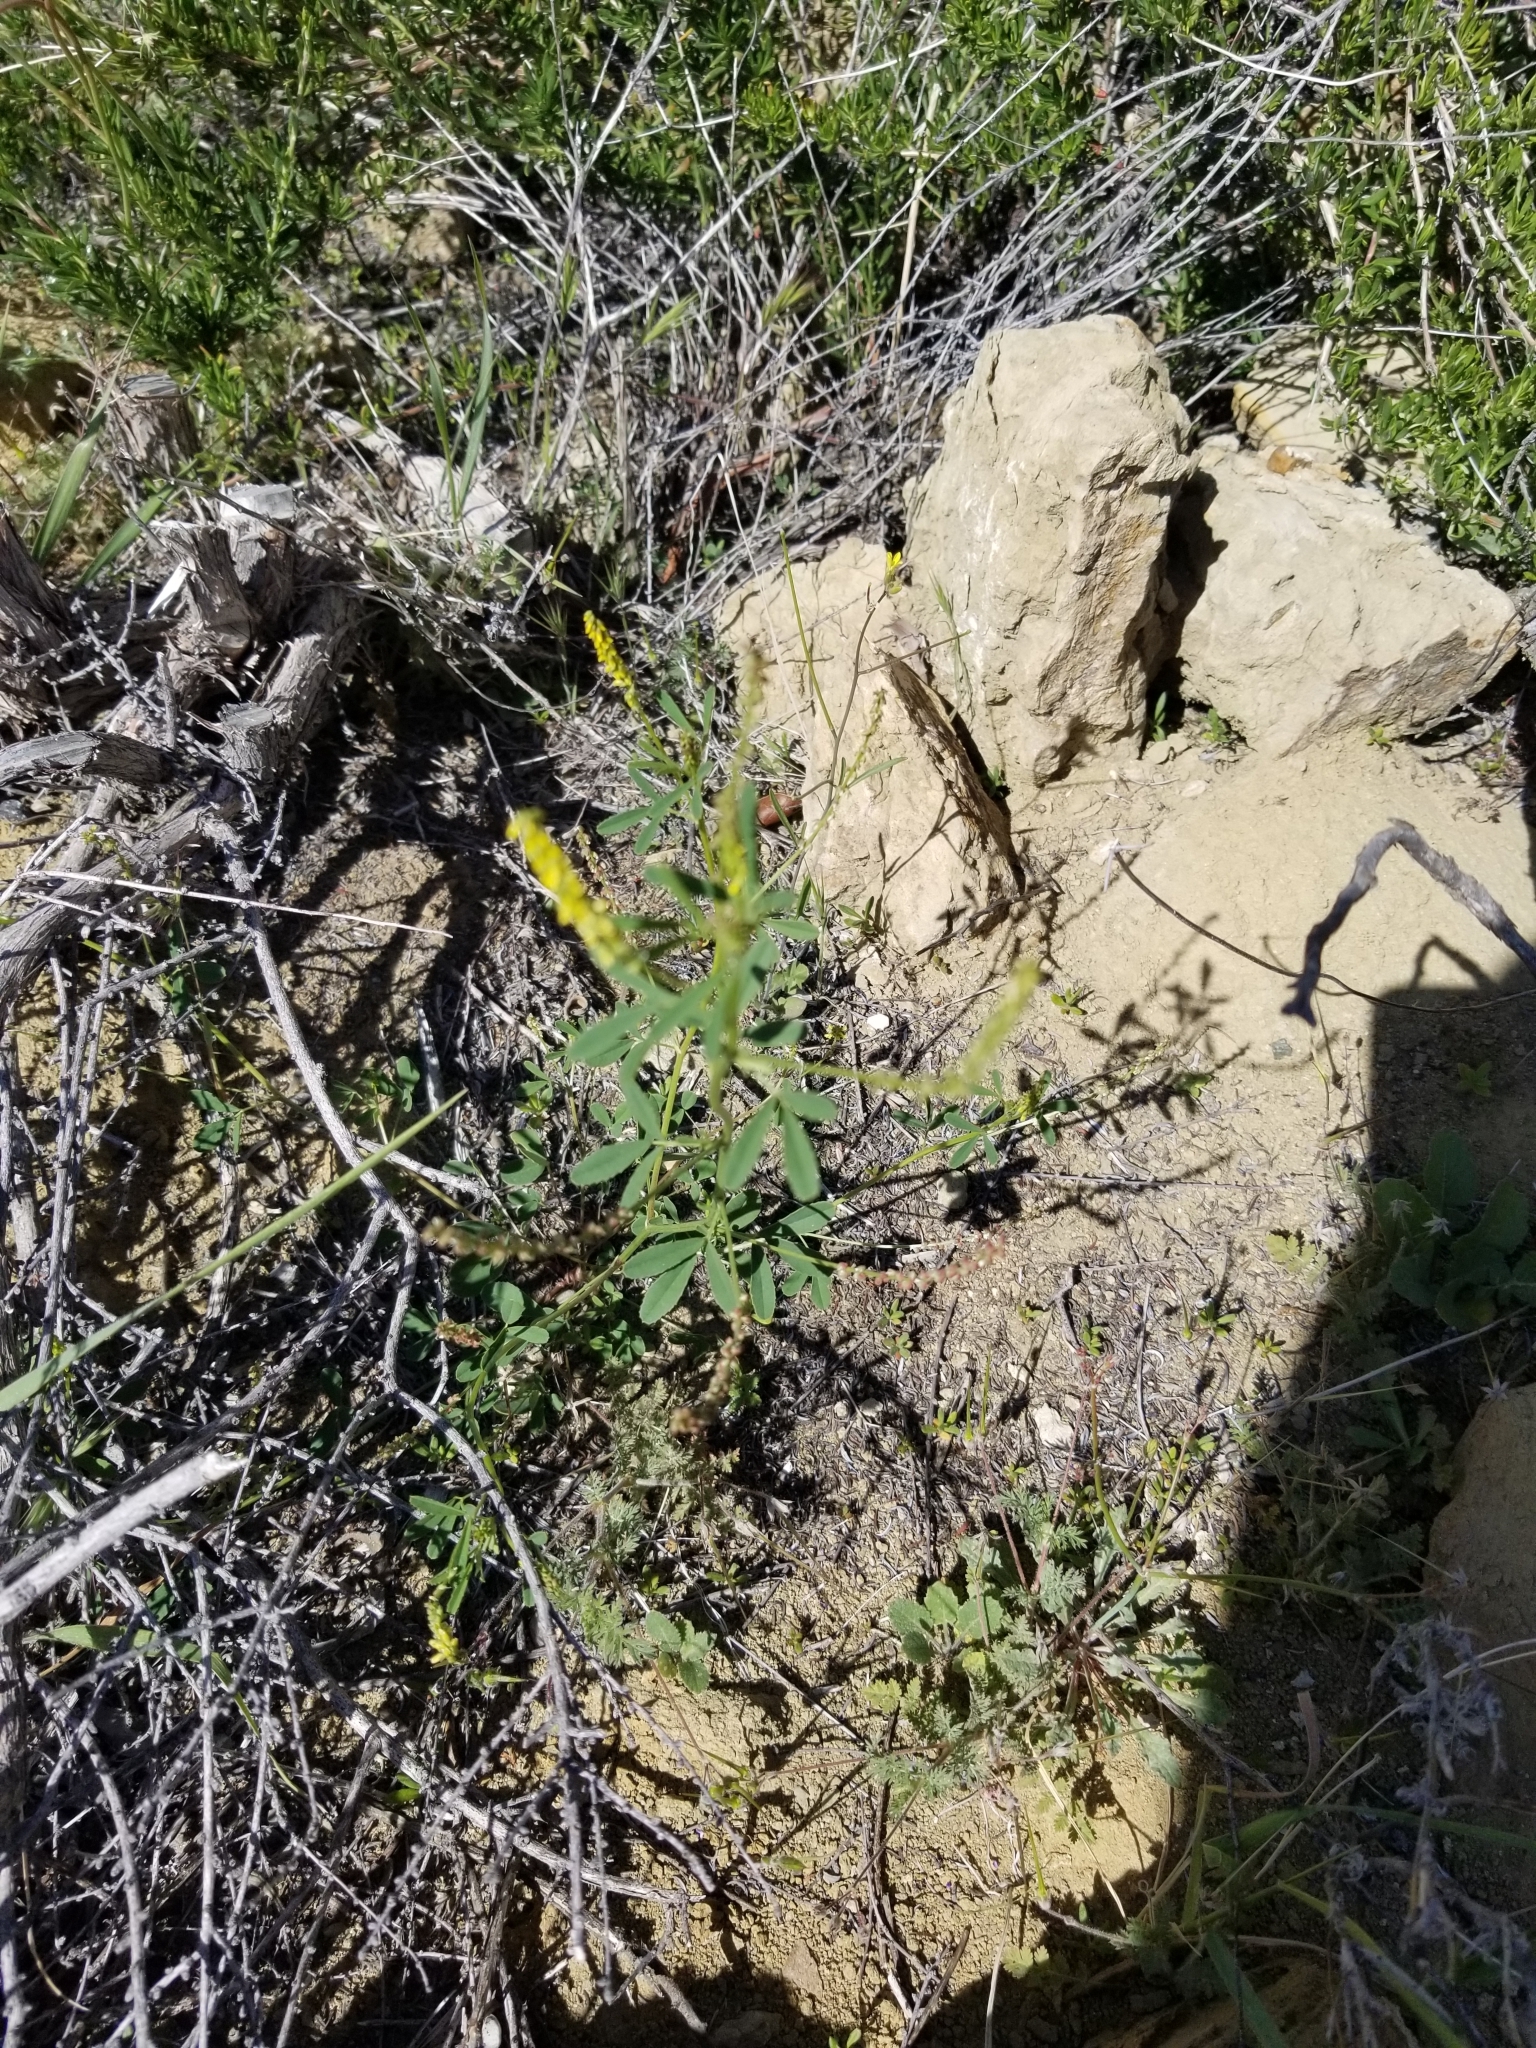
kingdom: Plantae
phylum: Tracheophyta
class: Magnoliopsida
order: Fabales
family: Fabaceae
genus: Melilotus
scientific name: Melilotus indicus
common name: Small melilot
